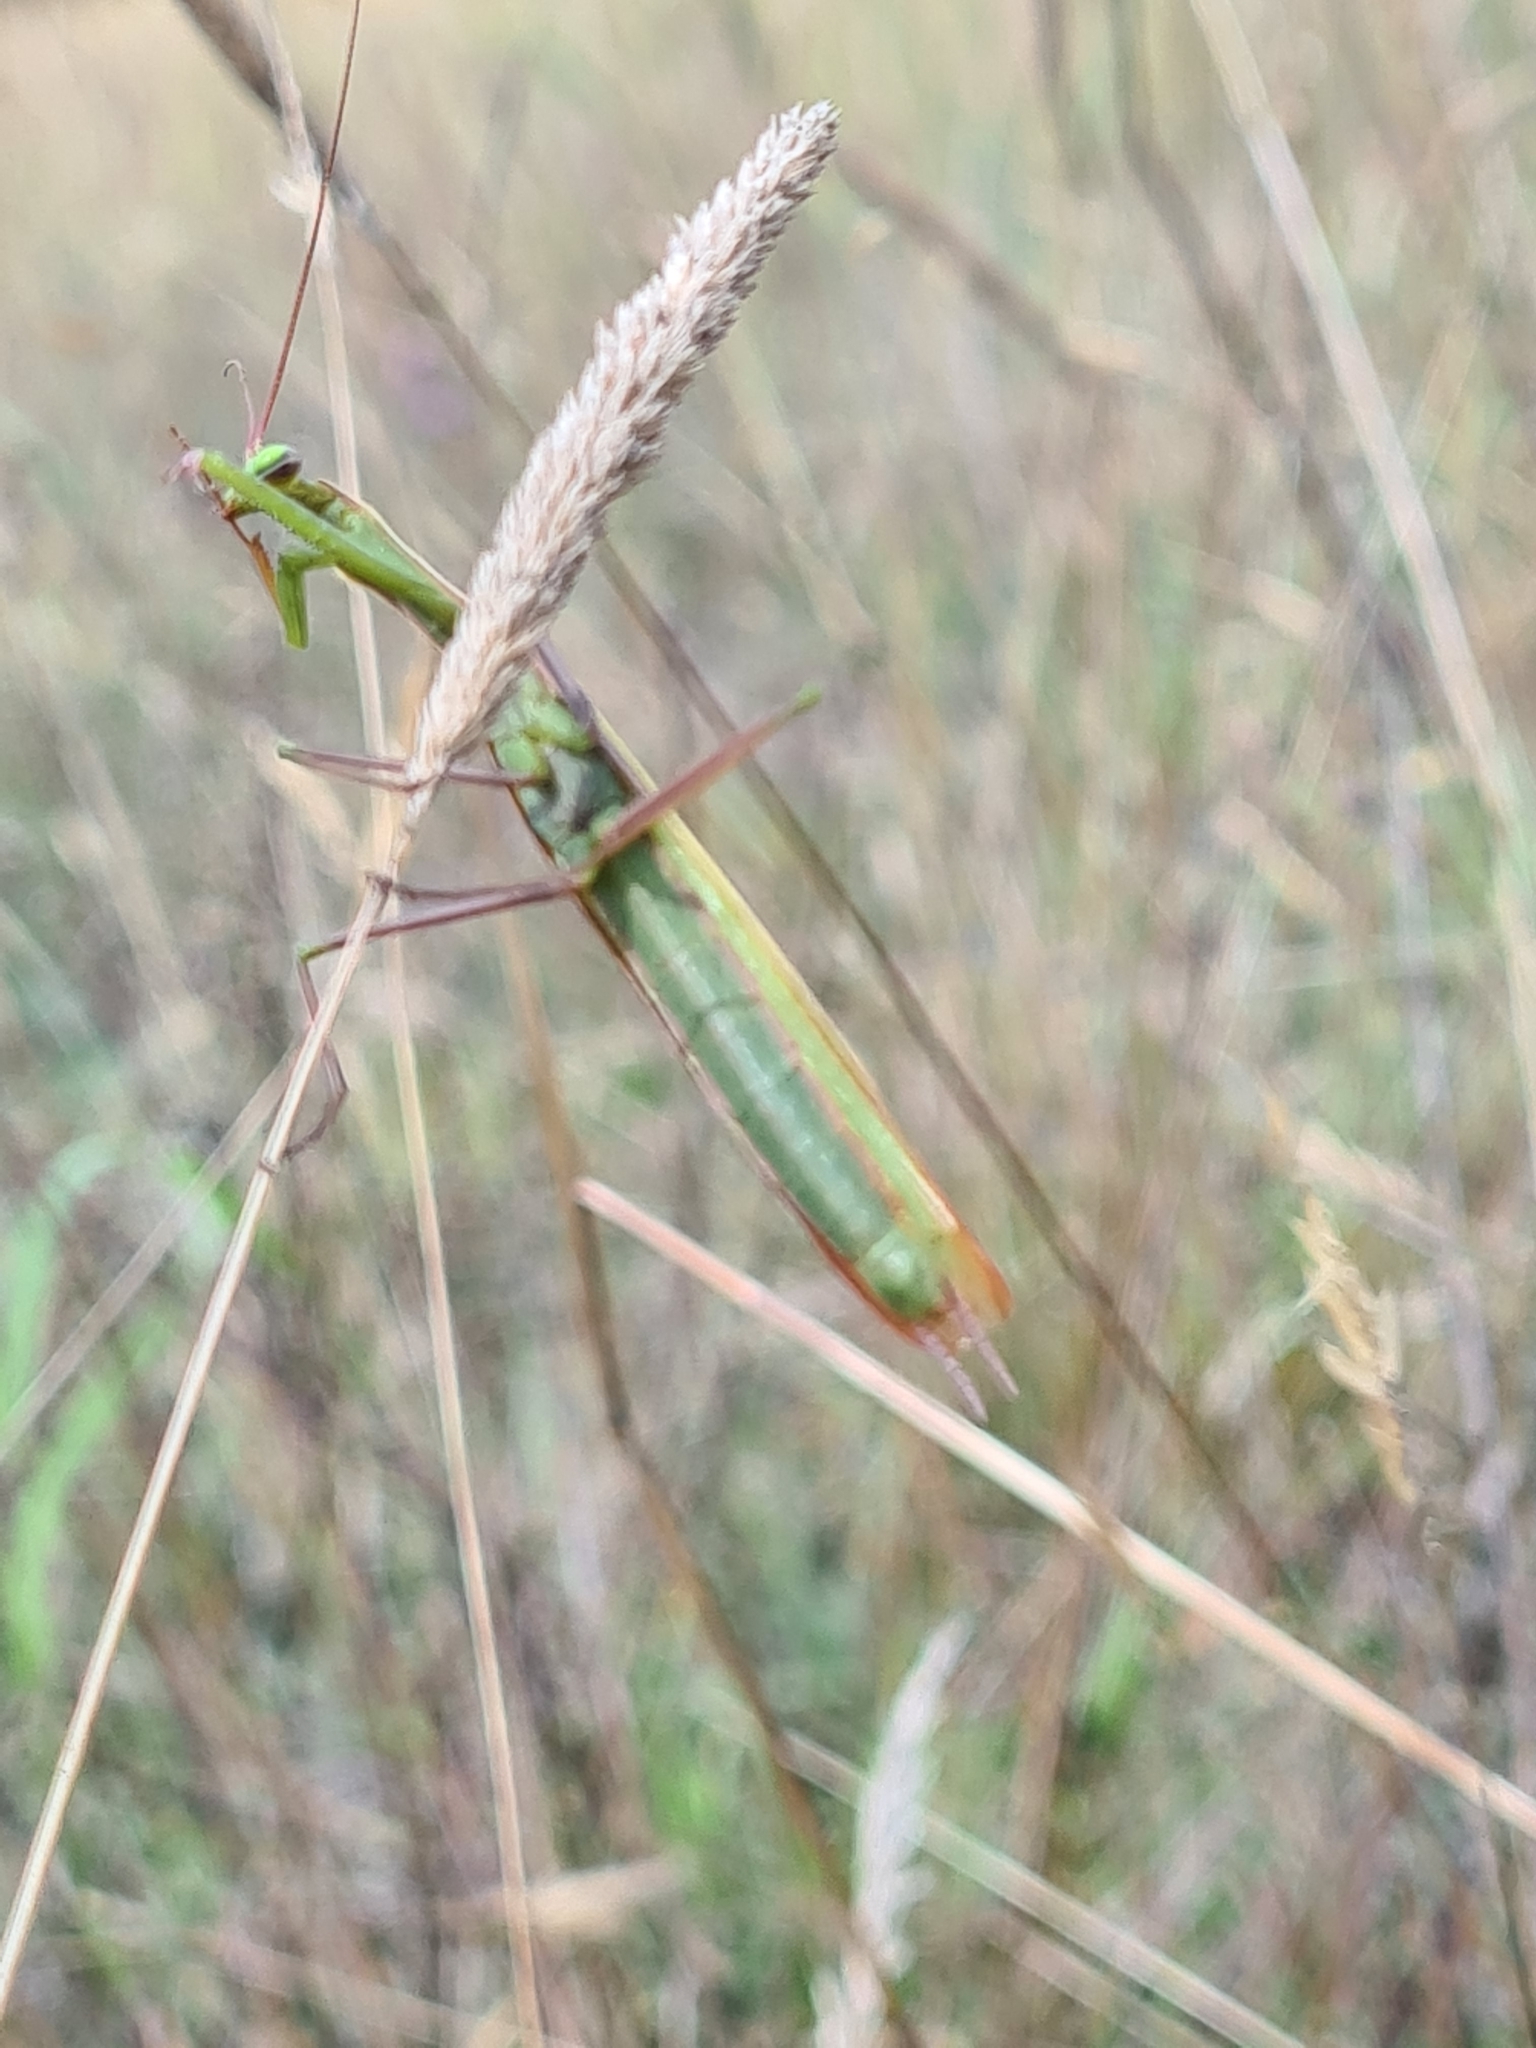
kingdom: Animalia
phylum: Arthropoda
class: Insecta
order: Mantodea
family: Mantidae
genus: Mantis
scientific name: Mantis religiosa
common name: Praying mantis
